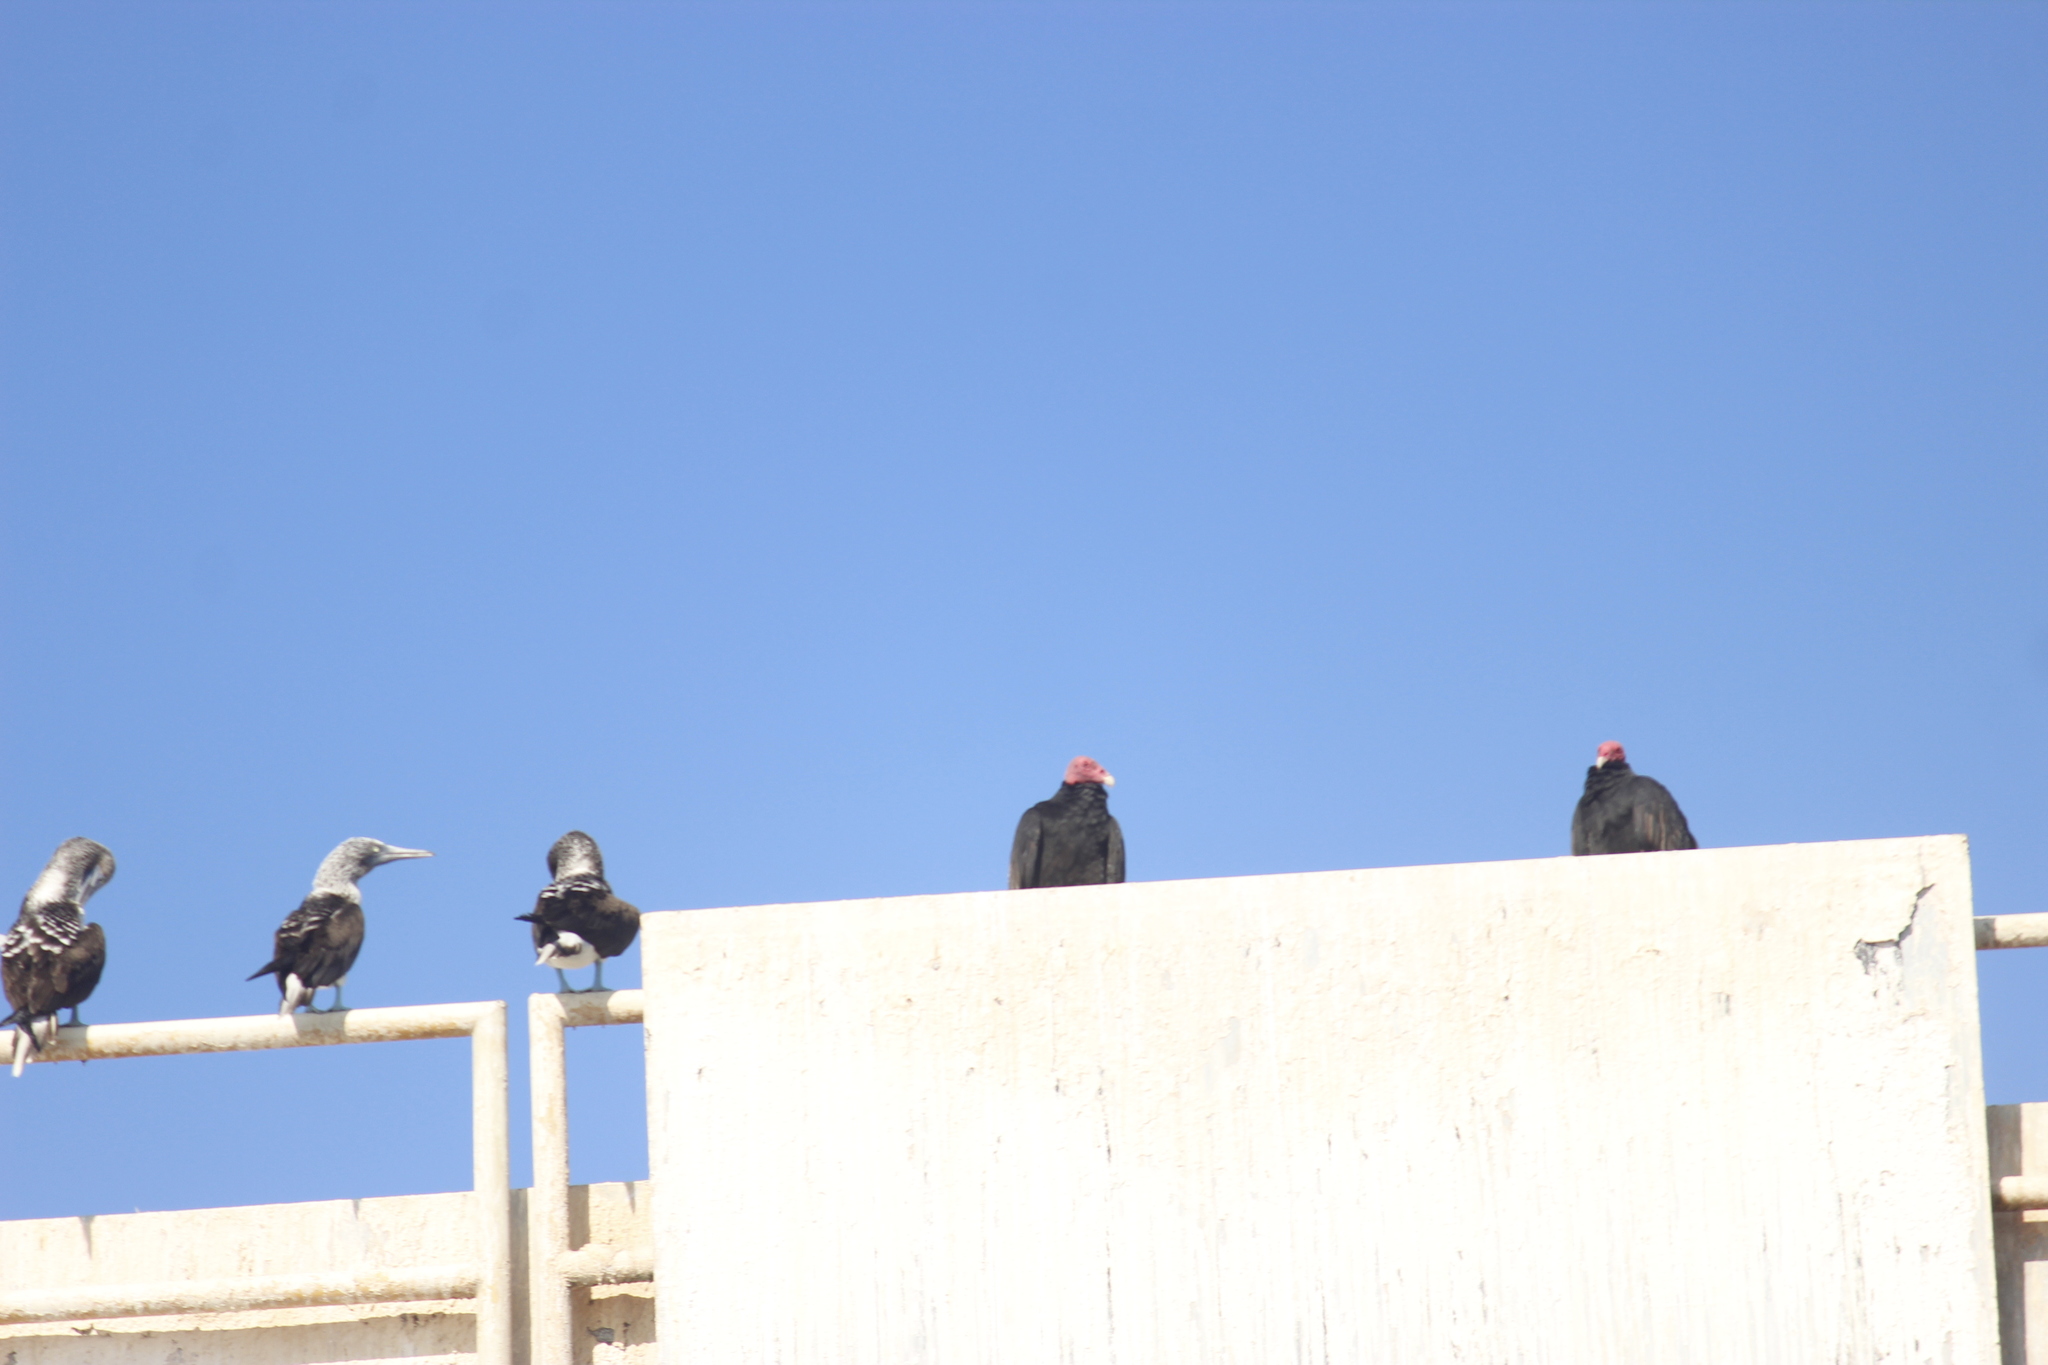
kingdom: Animalia
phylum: Chordata
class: Aves
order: Accipitriformes
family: Cathartidae
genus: Cathartes
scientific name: Cathartes aura
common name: Turkey vulture
